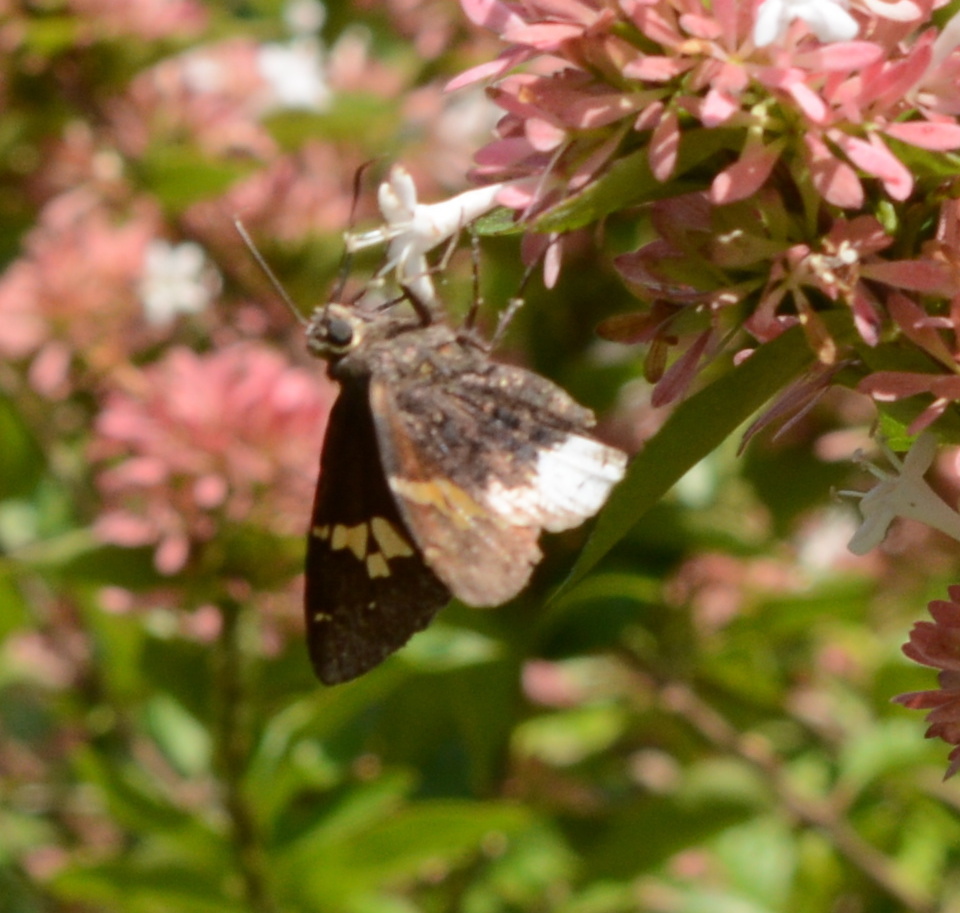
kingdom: Animalia
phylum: Arthropoda
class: Insecta
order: Lepidoptera
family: Hesperiidae
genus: Thorybes
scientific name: Thorybes lyciades
